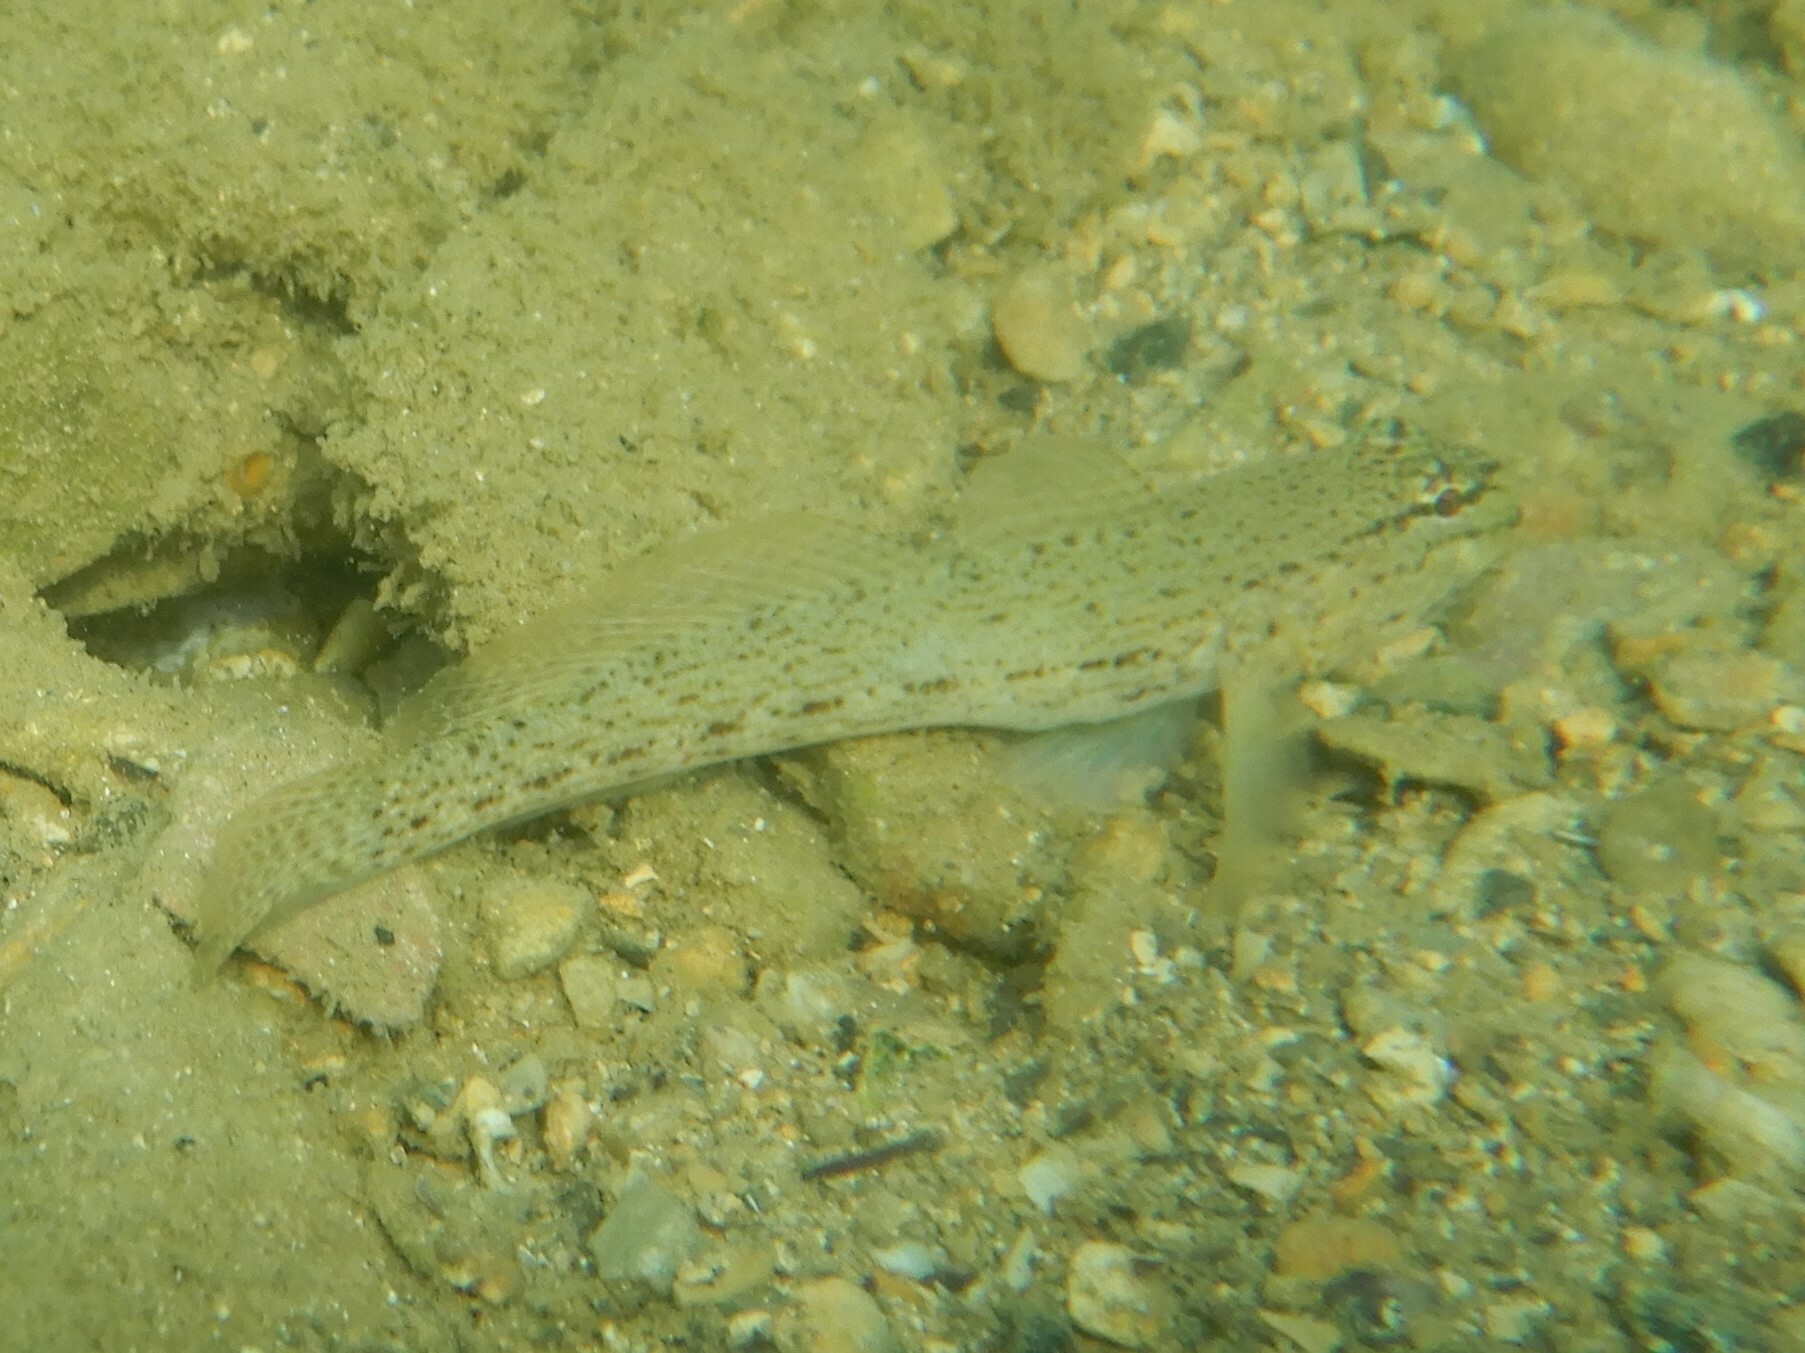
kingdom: Animalia
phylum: Chordata
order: Perciformes
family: Gobiidae
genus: Gobius
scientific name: Gobius bucchichi
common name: Bucchich's goby
